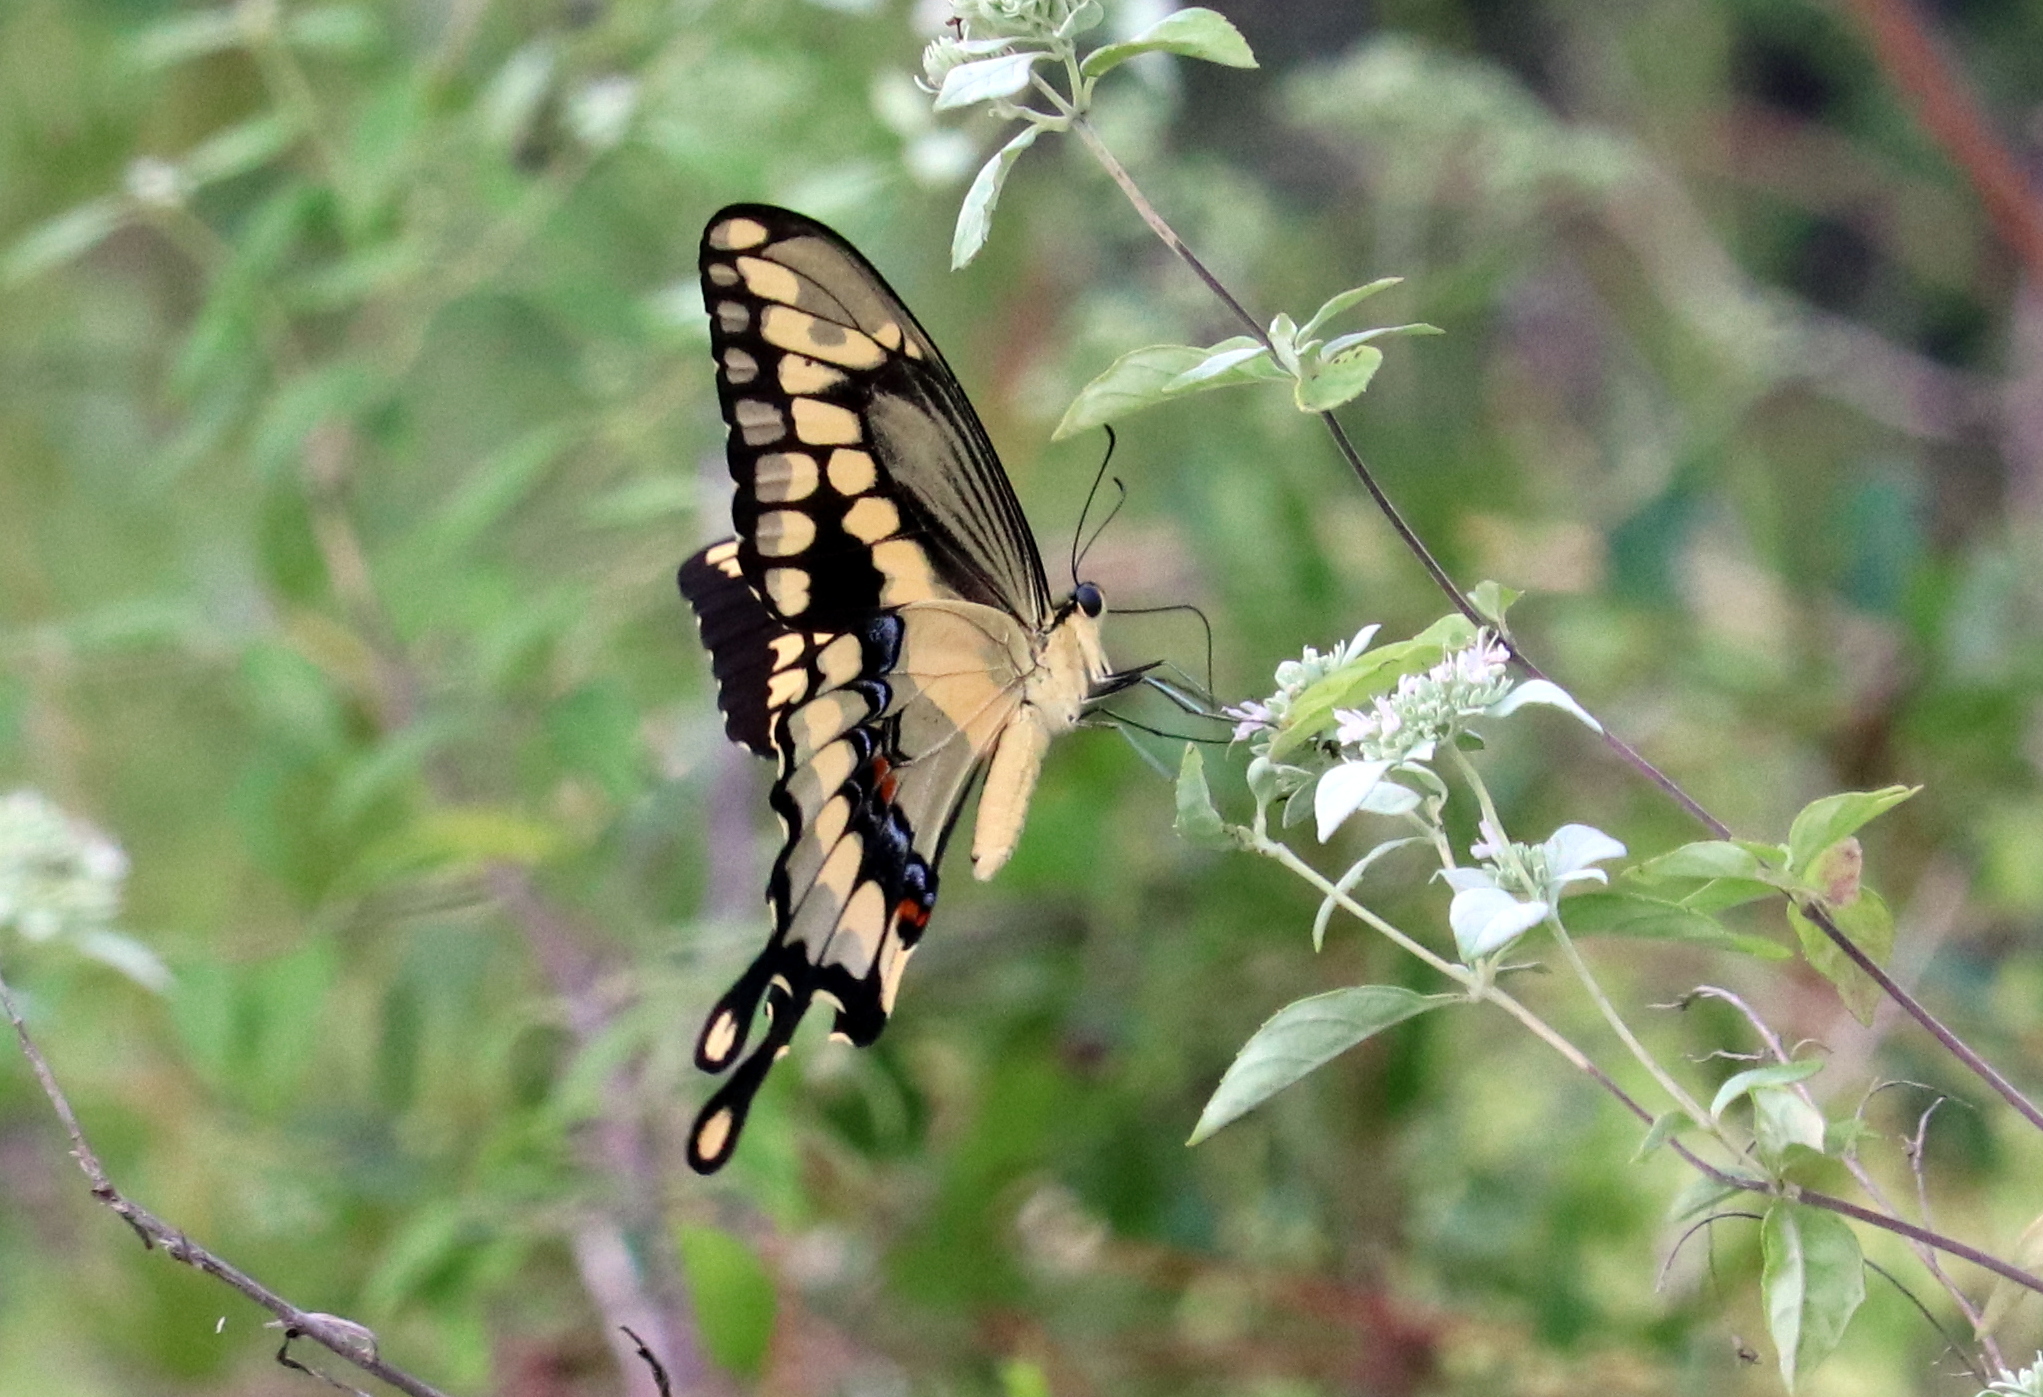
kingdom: Animalia
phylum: Arthropoda
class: Insecta
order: Lepidoptera
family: Papilionidae
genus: Papilio
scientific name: Papilio cresphontes
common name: Giant swallowtail
